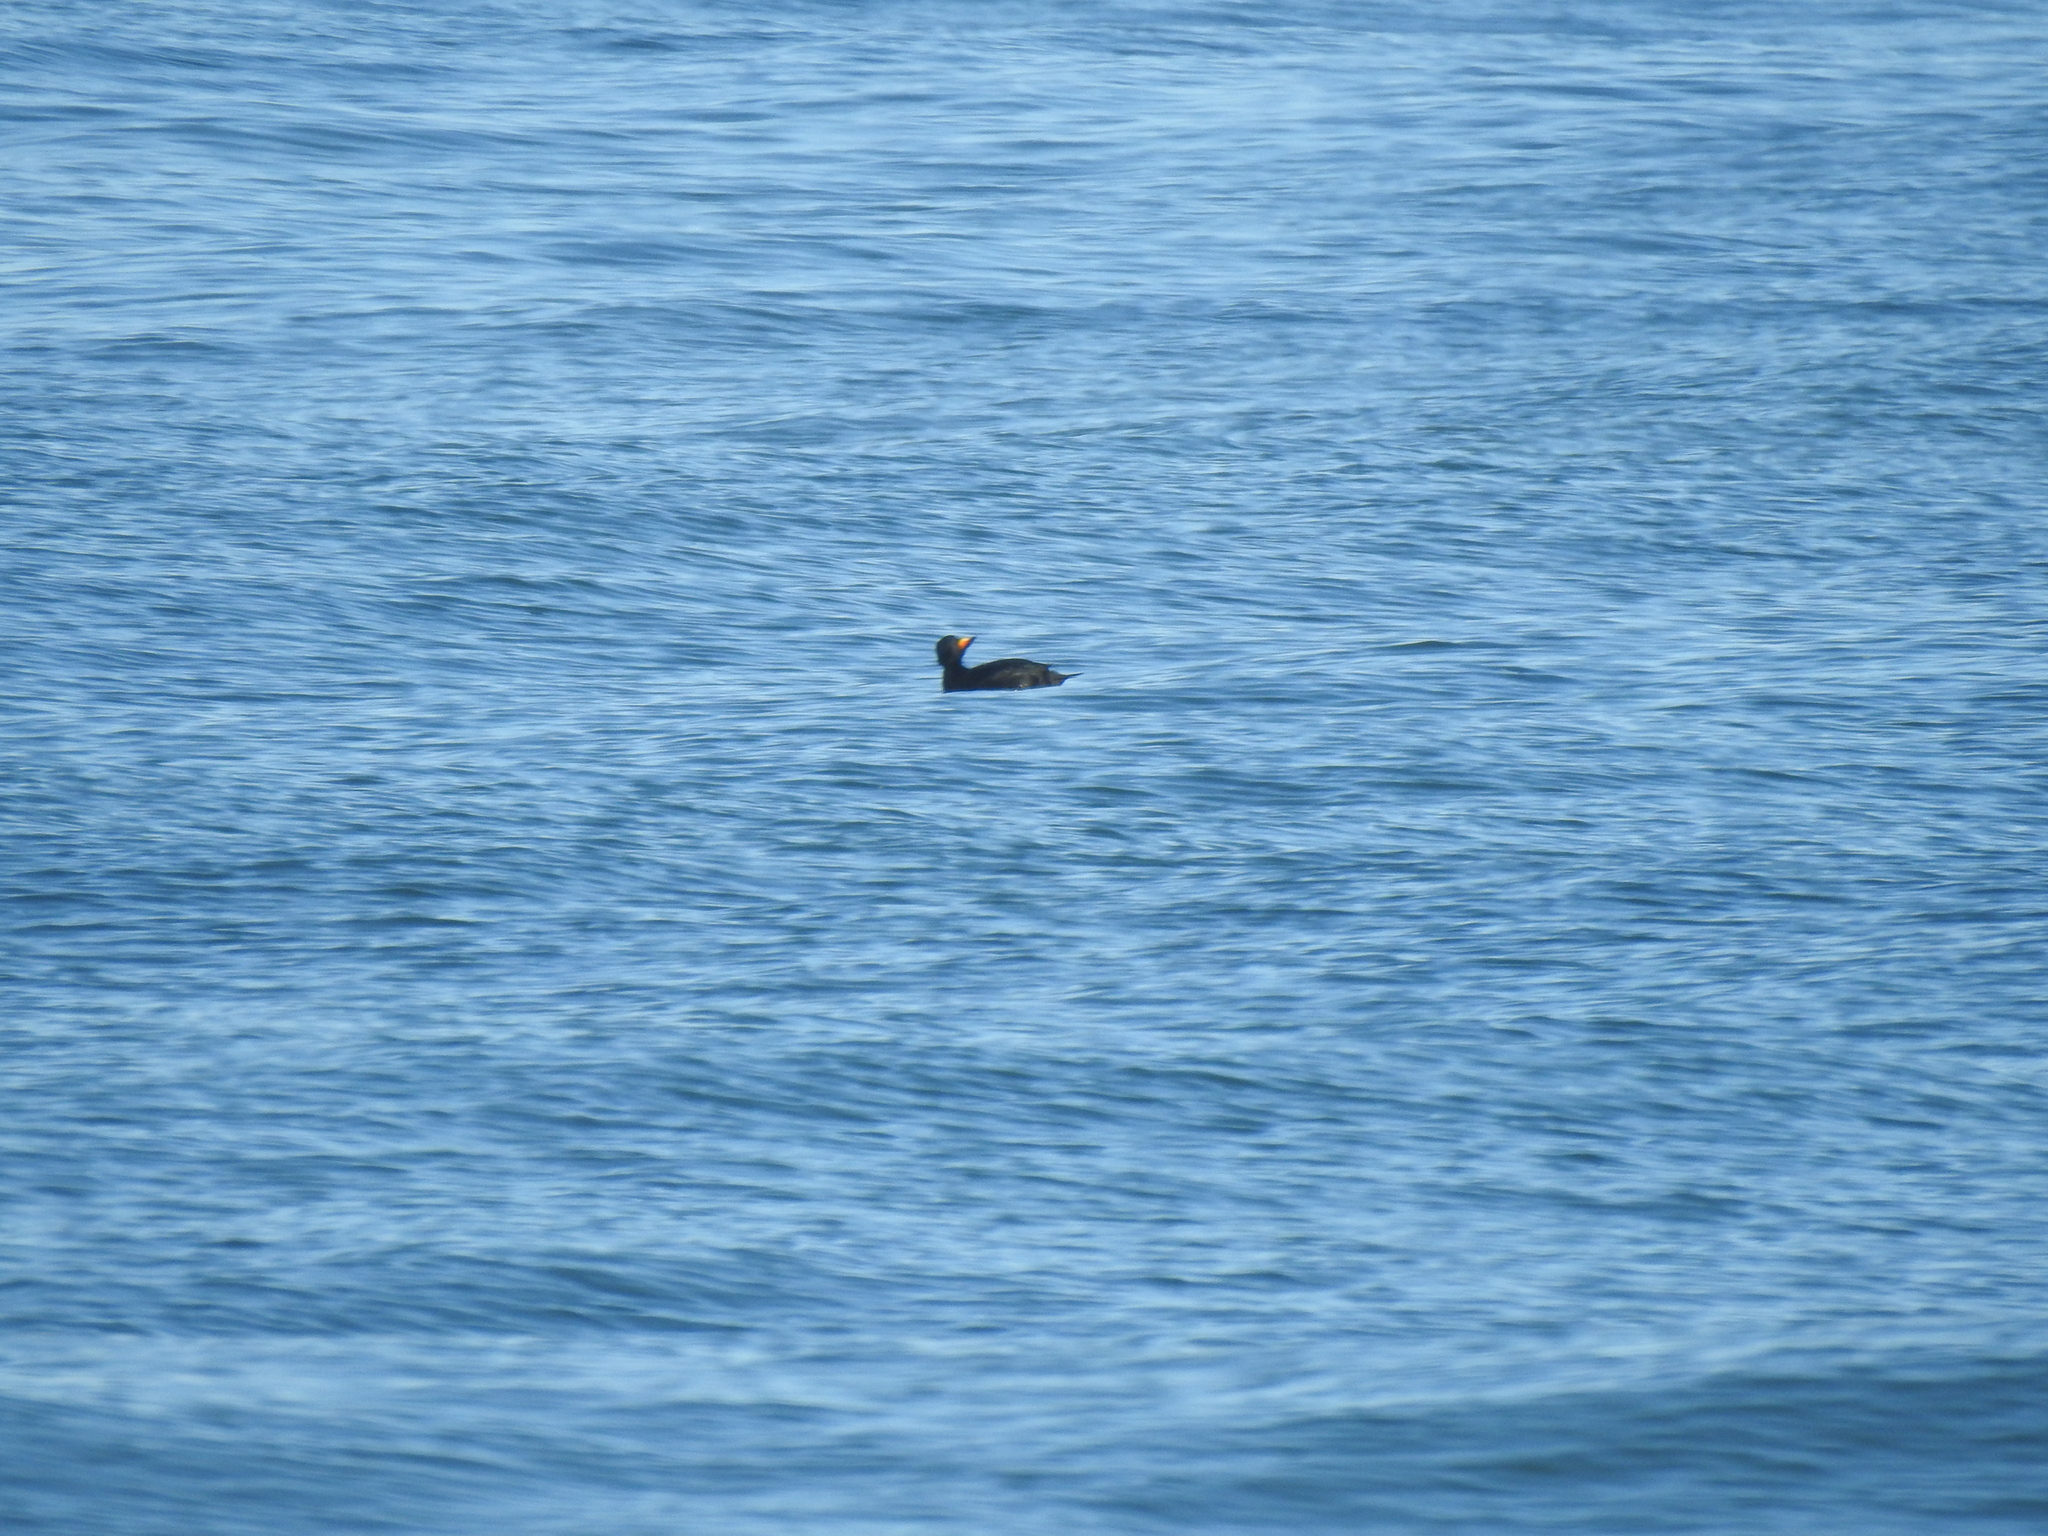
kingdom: Animalia
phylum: Chordata
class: Aves
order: Anseriformes
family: Anatidae
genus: Melanitta
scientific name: Melanitta americana
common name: Black scoter
